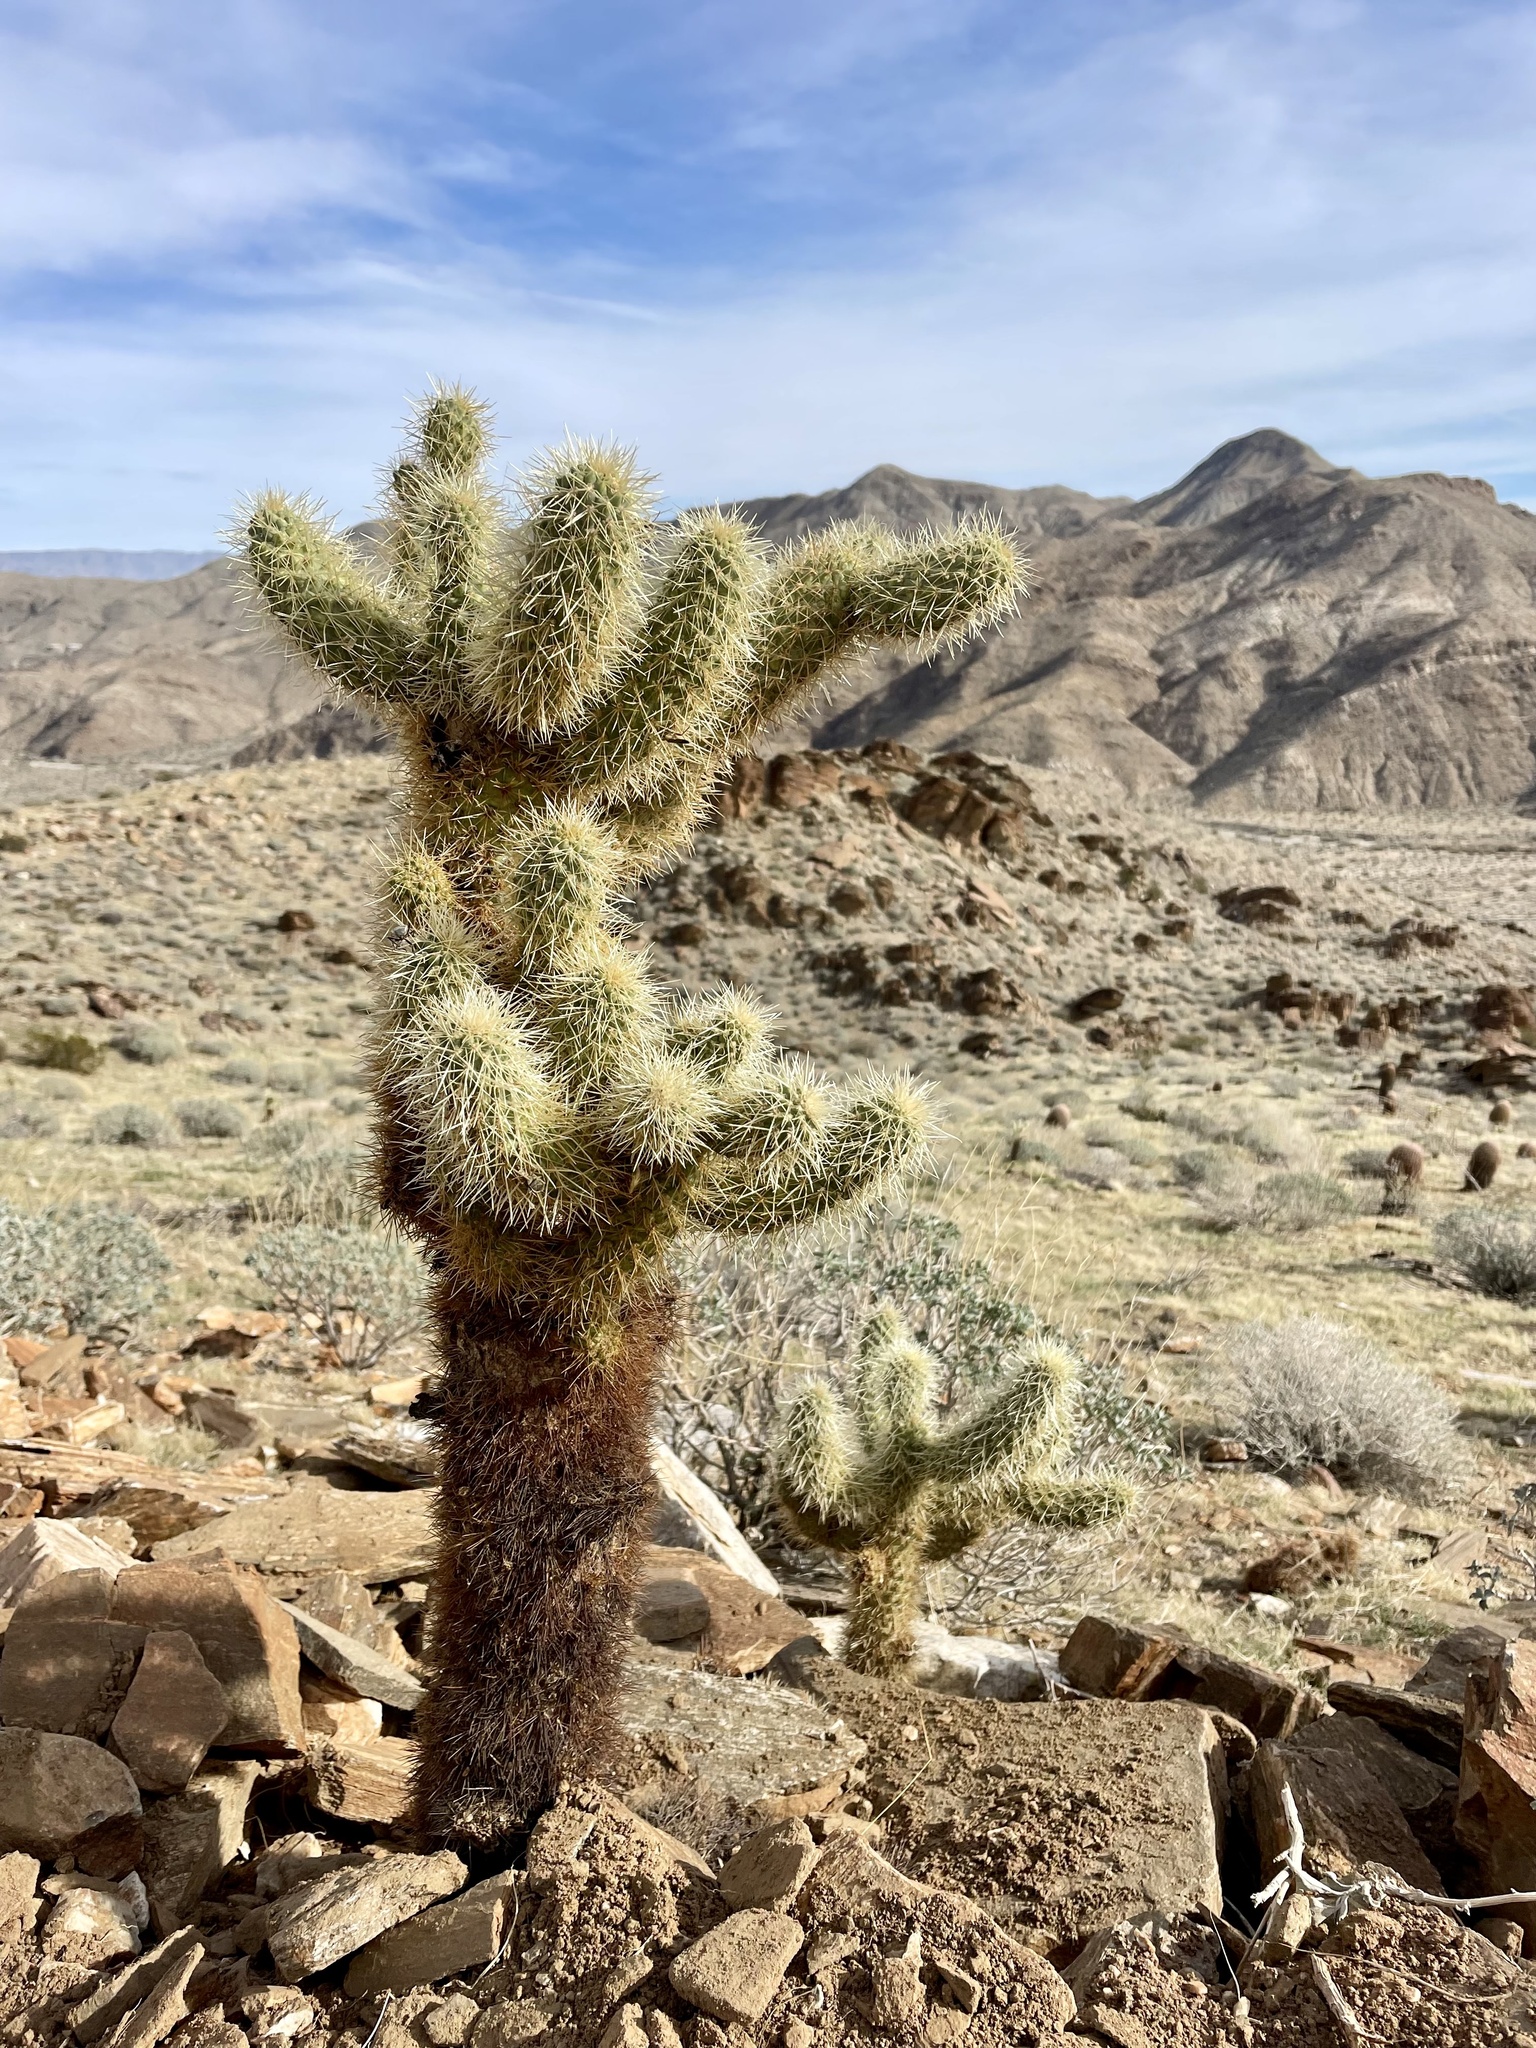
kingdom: Plantae
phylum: Tracheophyta
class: Magnoliopsida
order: Caryophyllales
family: Cactaceae
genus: Cylindropuntia
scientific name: Cylindropuntia fosbergii
